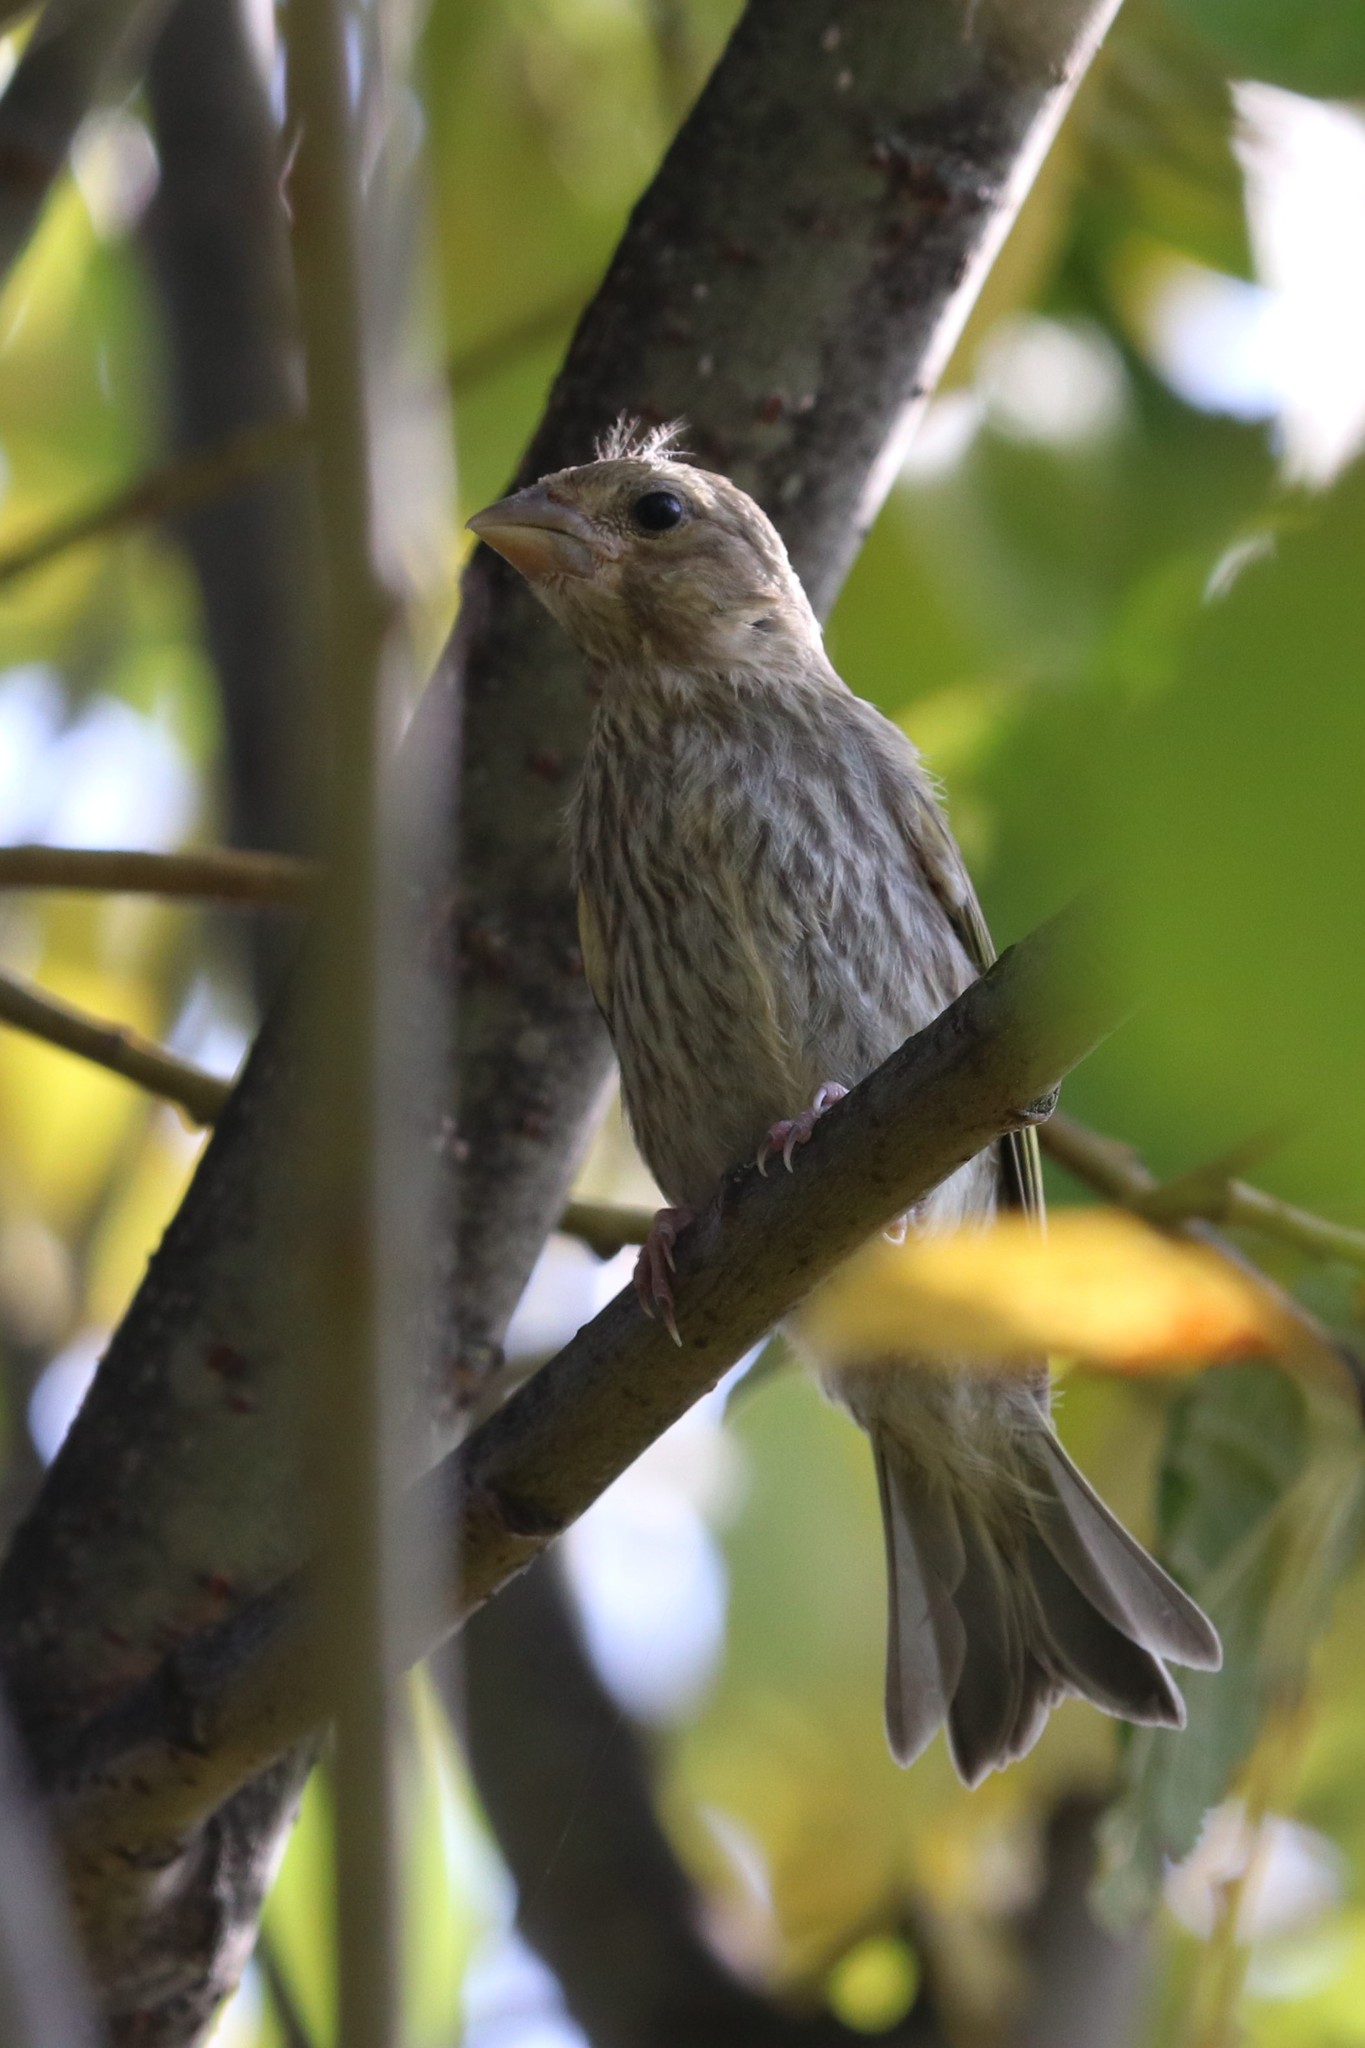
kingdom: Plantae
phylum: Tracheophyta
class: Liliopsida
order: Poales
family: Poaceae
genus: Chloris
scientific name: Chloris chloris
